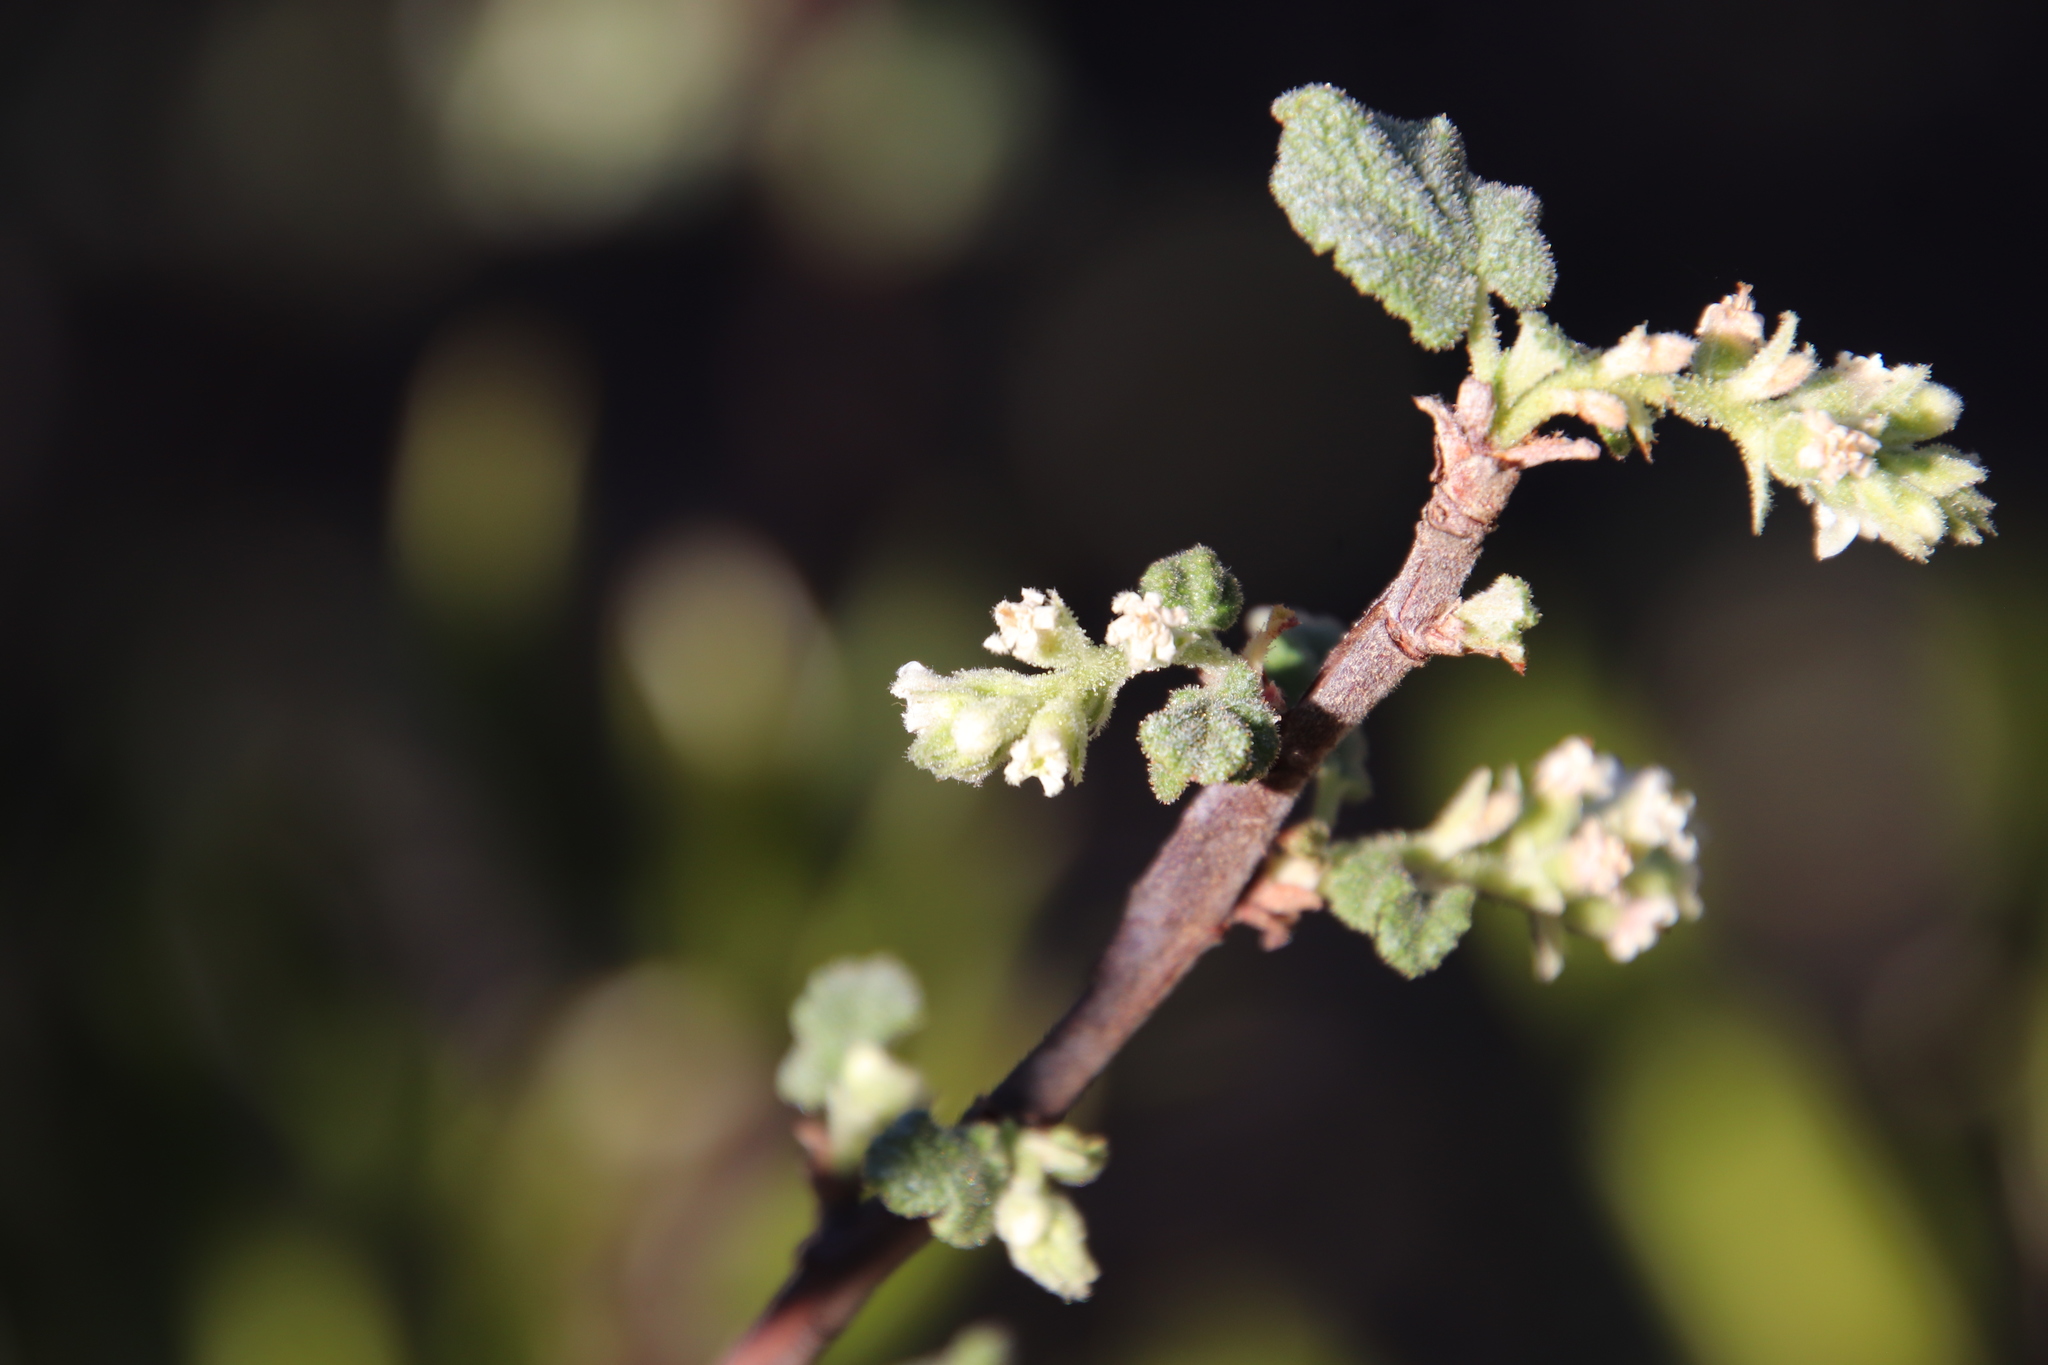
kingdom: Plantae
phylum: Tracheophyta
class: Magnoliopsida
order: Saxifragales
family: Grossulariaceae
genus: Ribes
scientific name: Ribes indecorum
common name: White-flower currant
